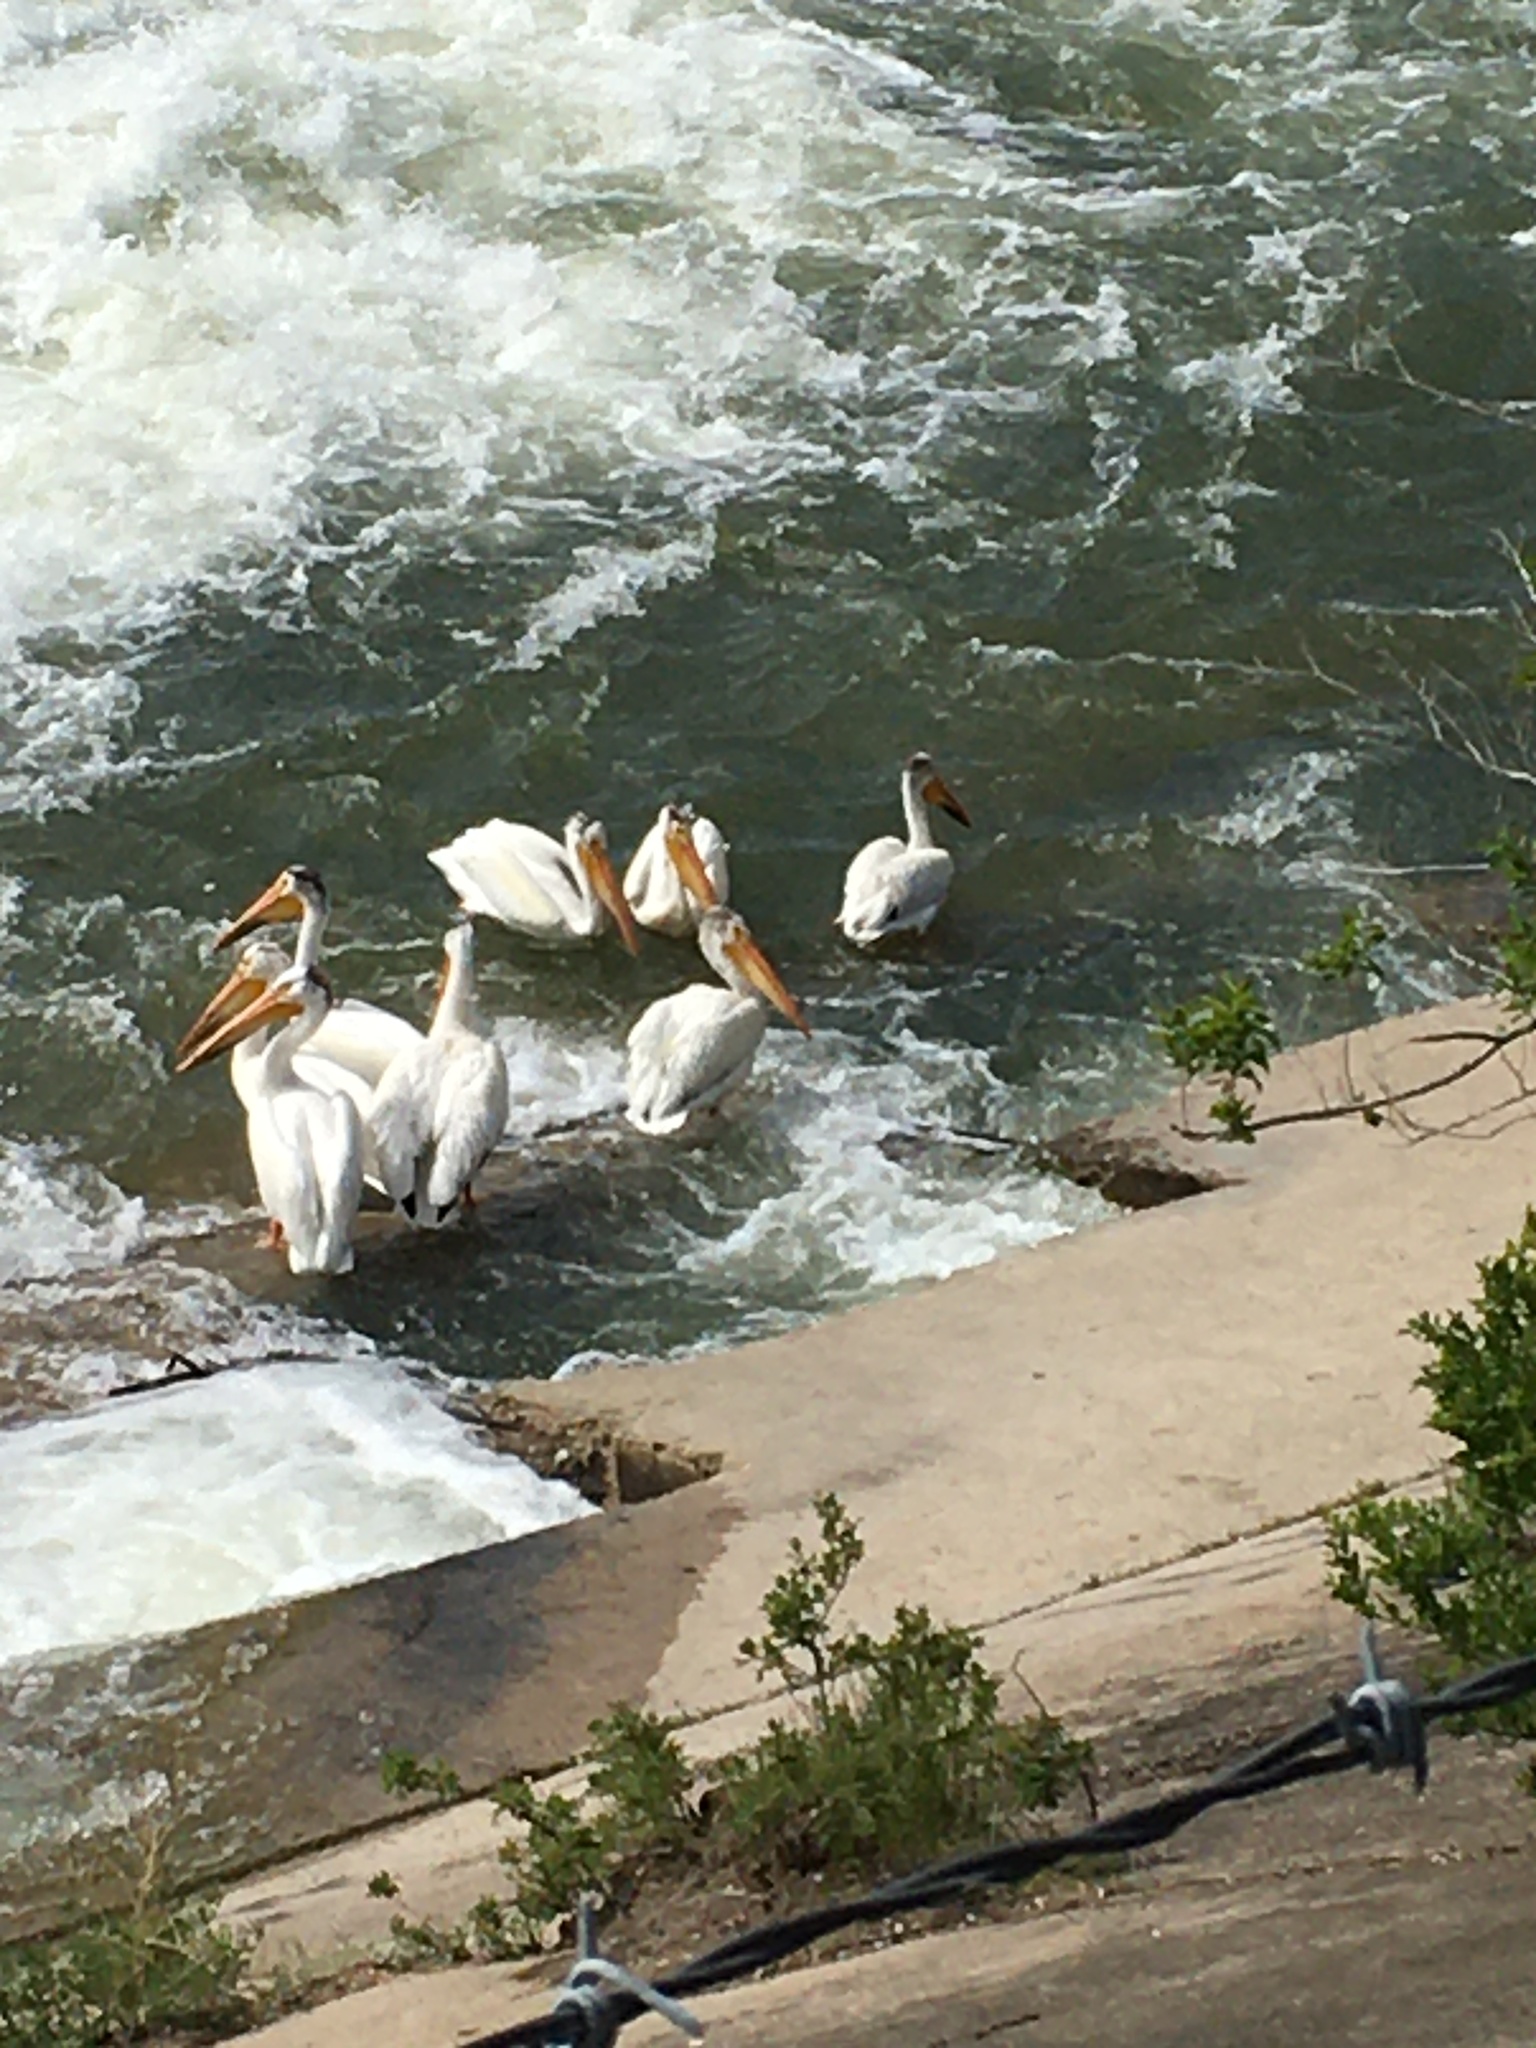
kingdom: Animalia
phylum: Chordata
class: Aves
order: Pelecaniformes
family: Pelecanidae
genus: Pelecanus
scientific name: Pelecanus erythrorhynchos
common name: American white pelican
